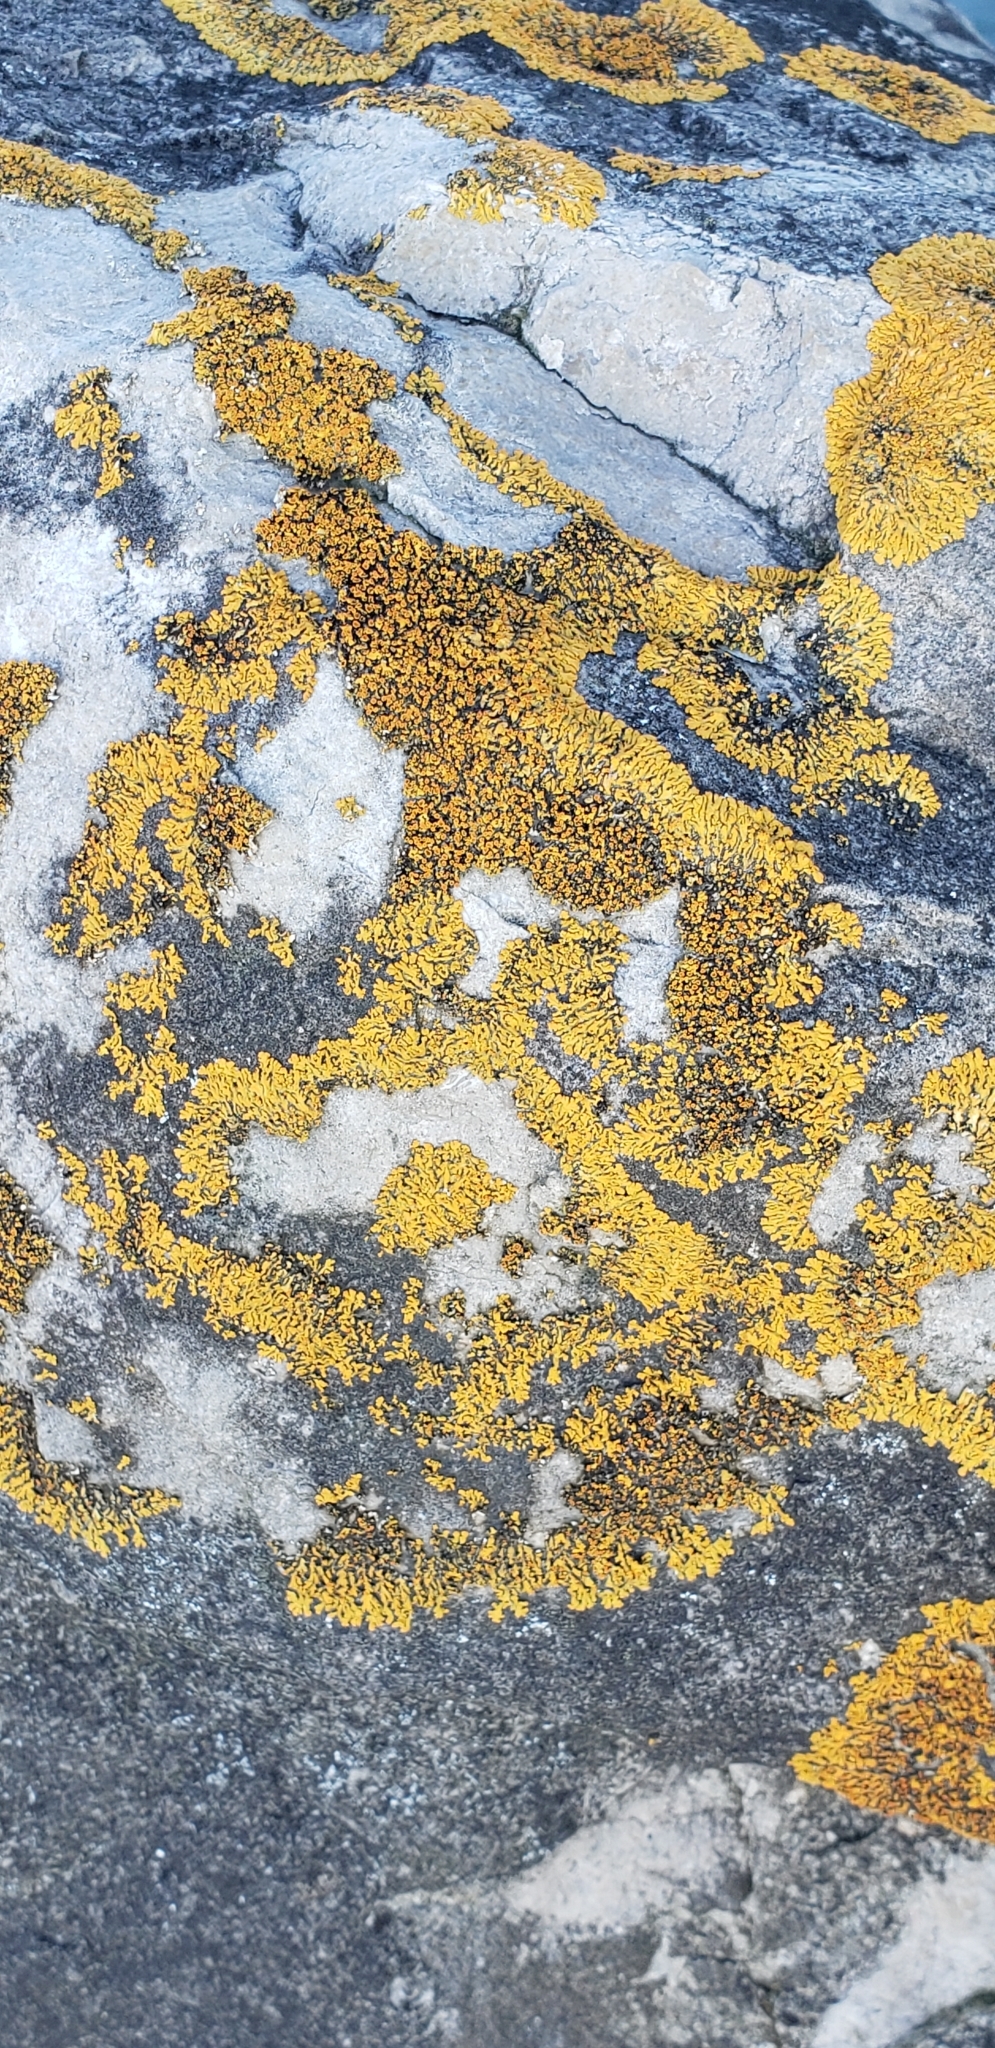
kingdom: Fungi
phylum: Ascomycota
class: Lecanoromycetes
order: Teloschistales
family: Teloschistaceae
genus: Xanthoria
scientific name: Xanthoria elegans
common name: Elegant sunburst lichen
